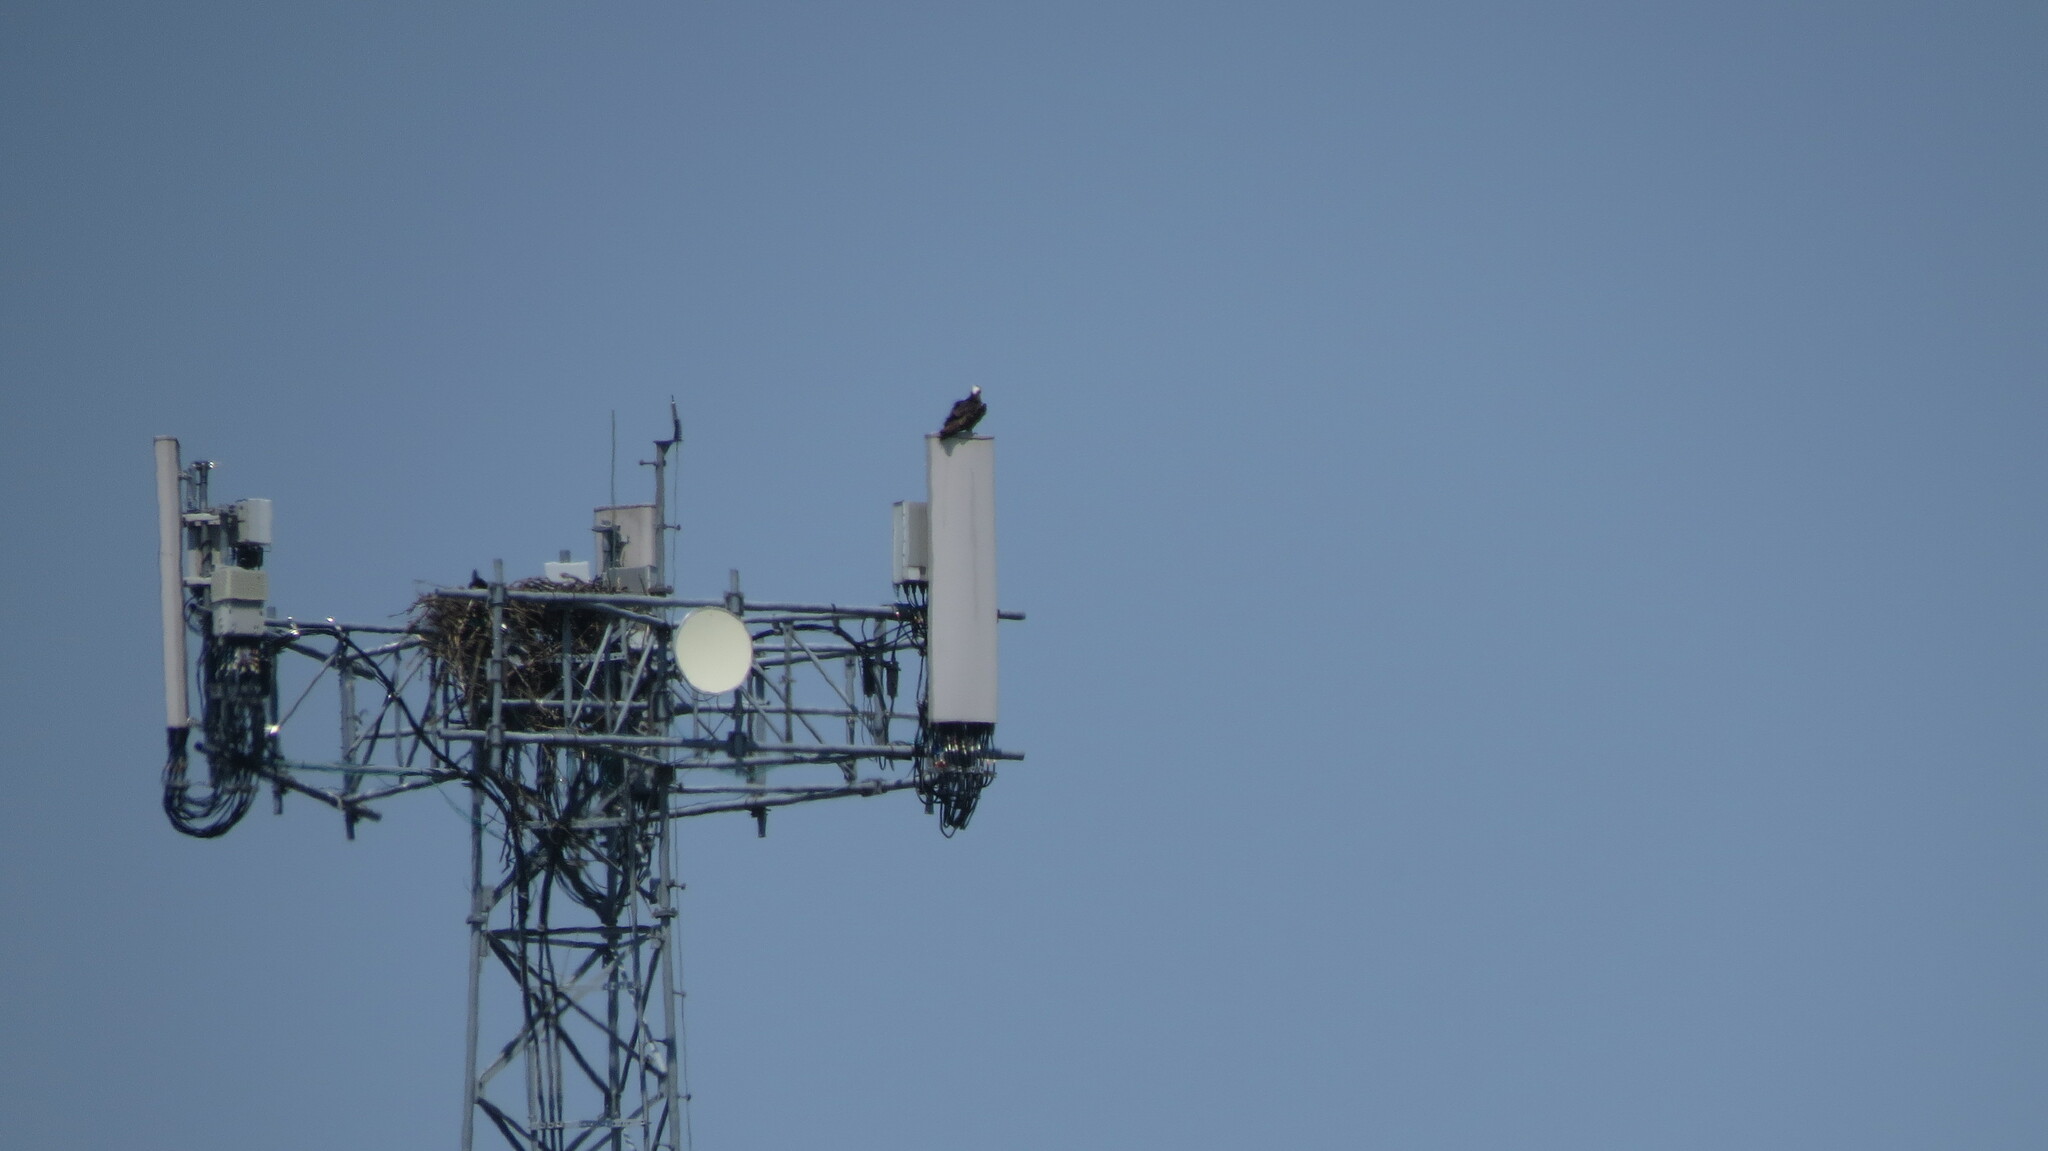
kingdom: Animalia
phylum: Chordata
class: Aves
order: Accipitriformes
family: Pandionidae
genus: Pandion
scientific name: Pandion haliaetus
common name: Osprey
